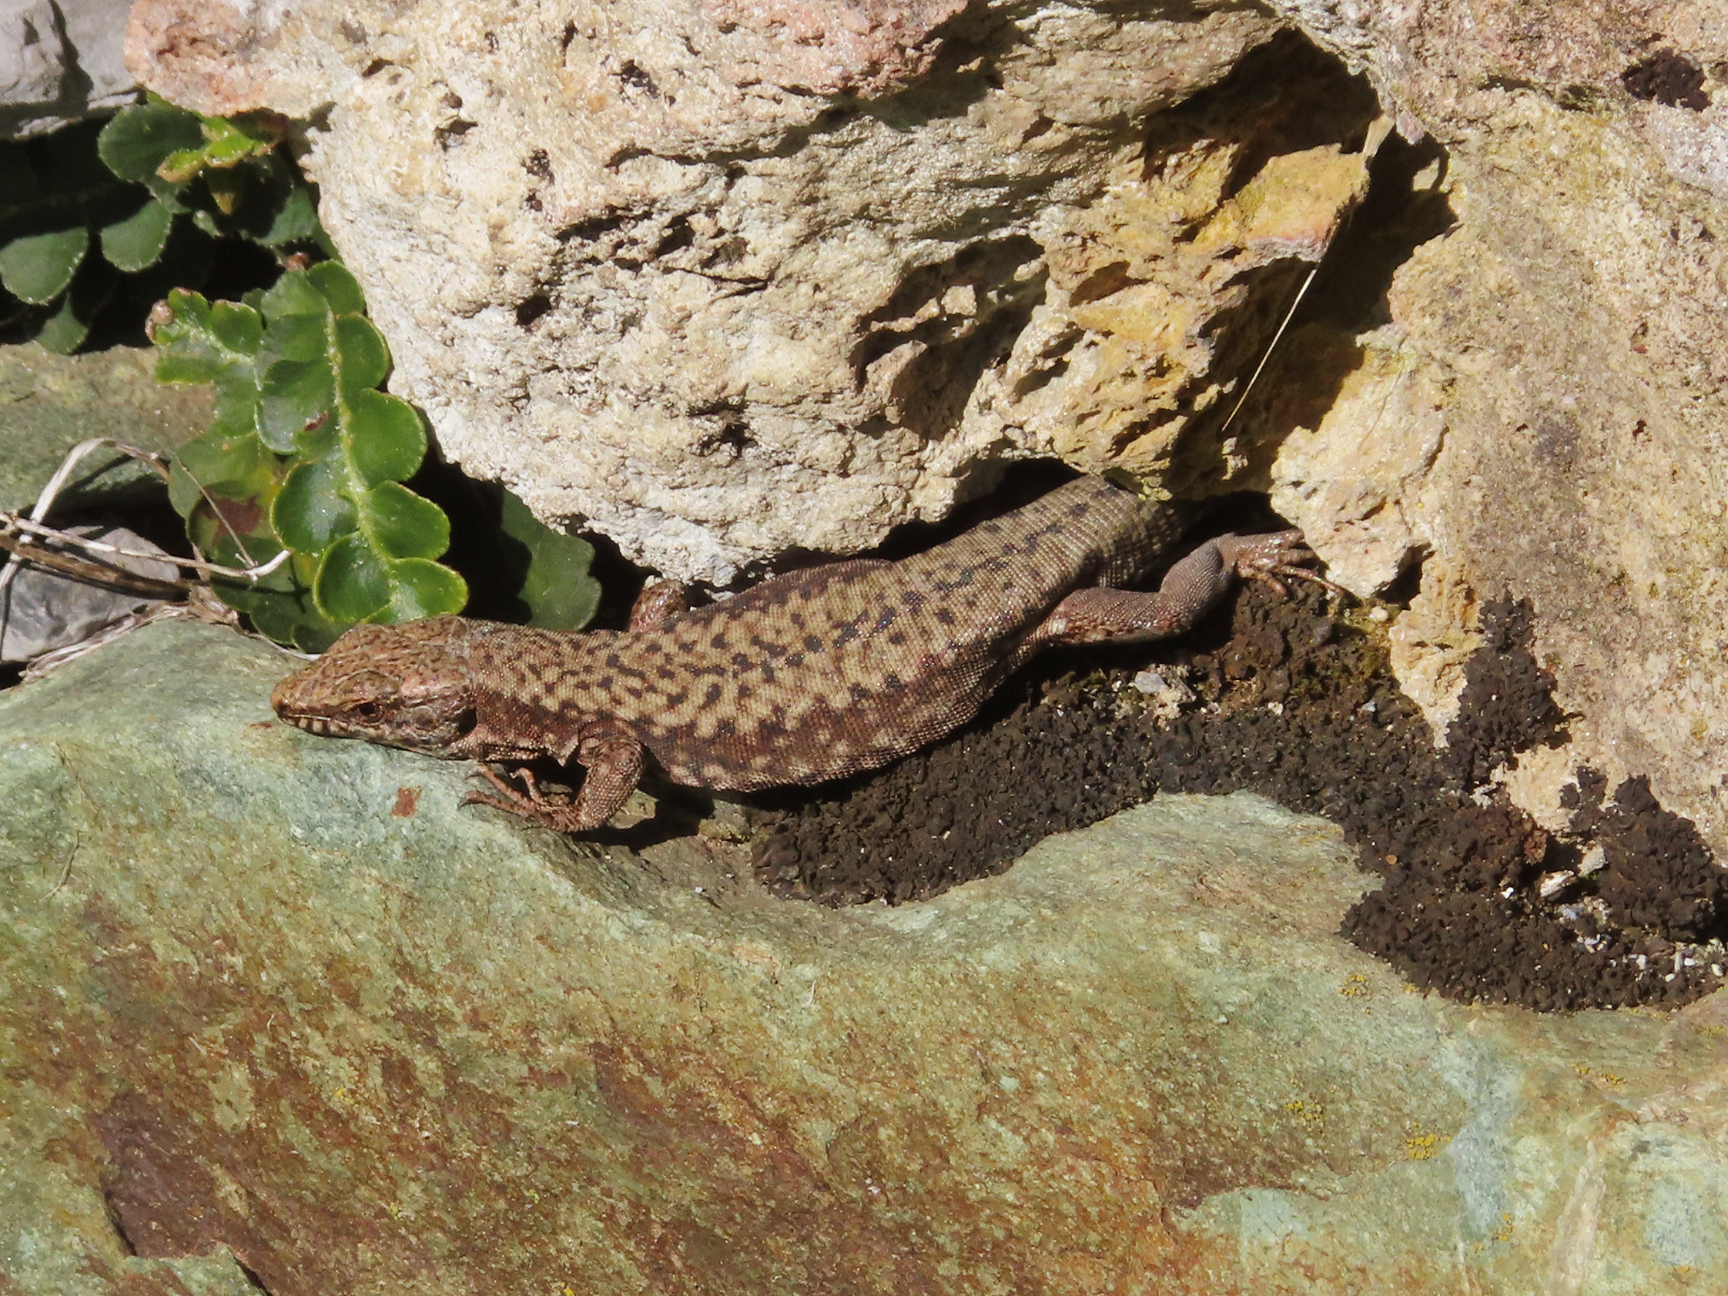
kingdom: Animalia
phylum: Chordata
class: Squamata
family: Lacertidae
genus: Podarcis
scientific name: Podarcis muralis
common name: Common wall lizard
